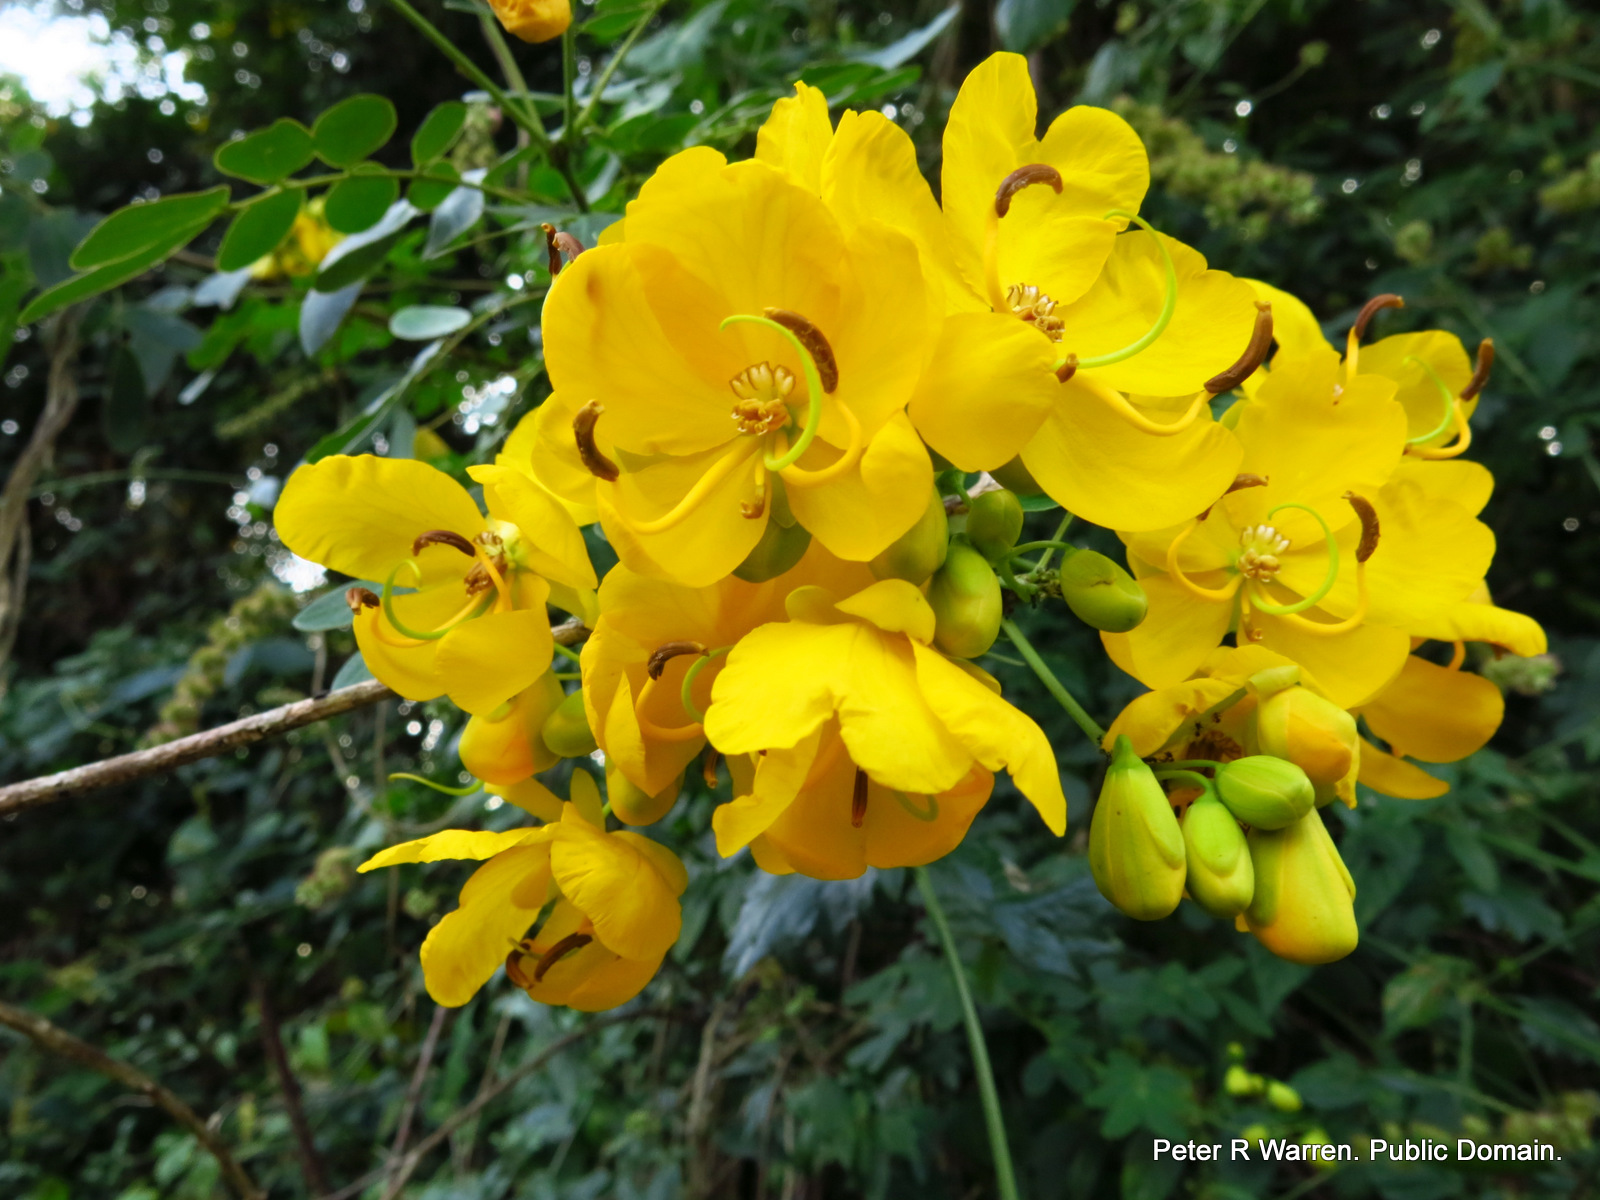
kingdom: Plantae
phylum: Tracheophyta
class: Magnoliopsida
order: Fabales
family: Fabaceae
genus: Senna
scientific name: Senna pendula
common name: Easter cassia
